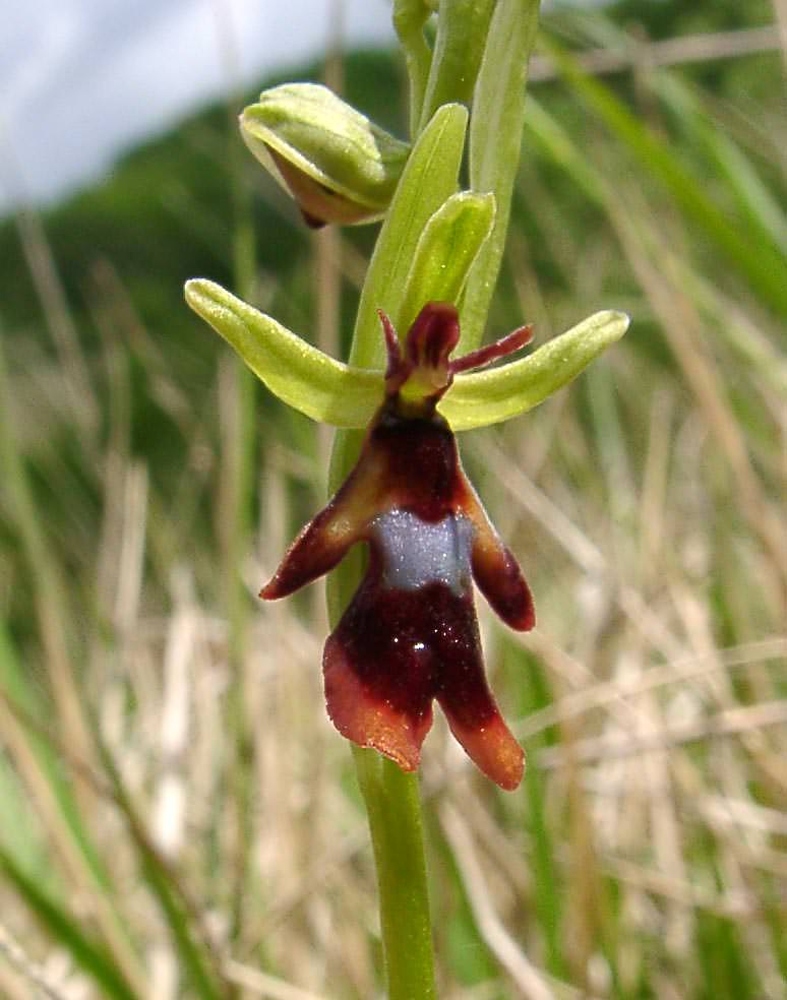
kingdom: Plantae
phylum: Tracheophyta
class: Liliopsida
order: Asparagales
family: Orchidaceae
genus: Ophrys
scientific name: Ophrys insectifera
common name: Fly orchid
